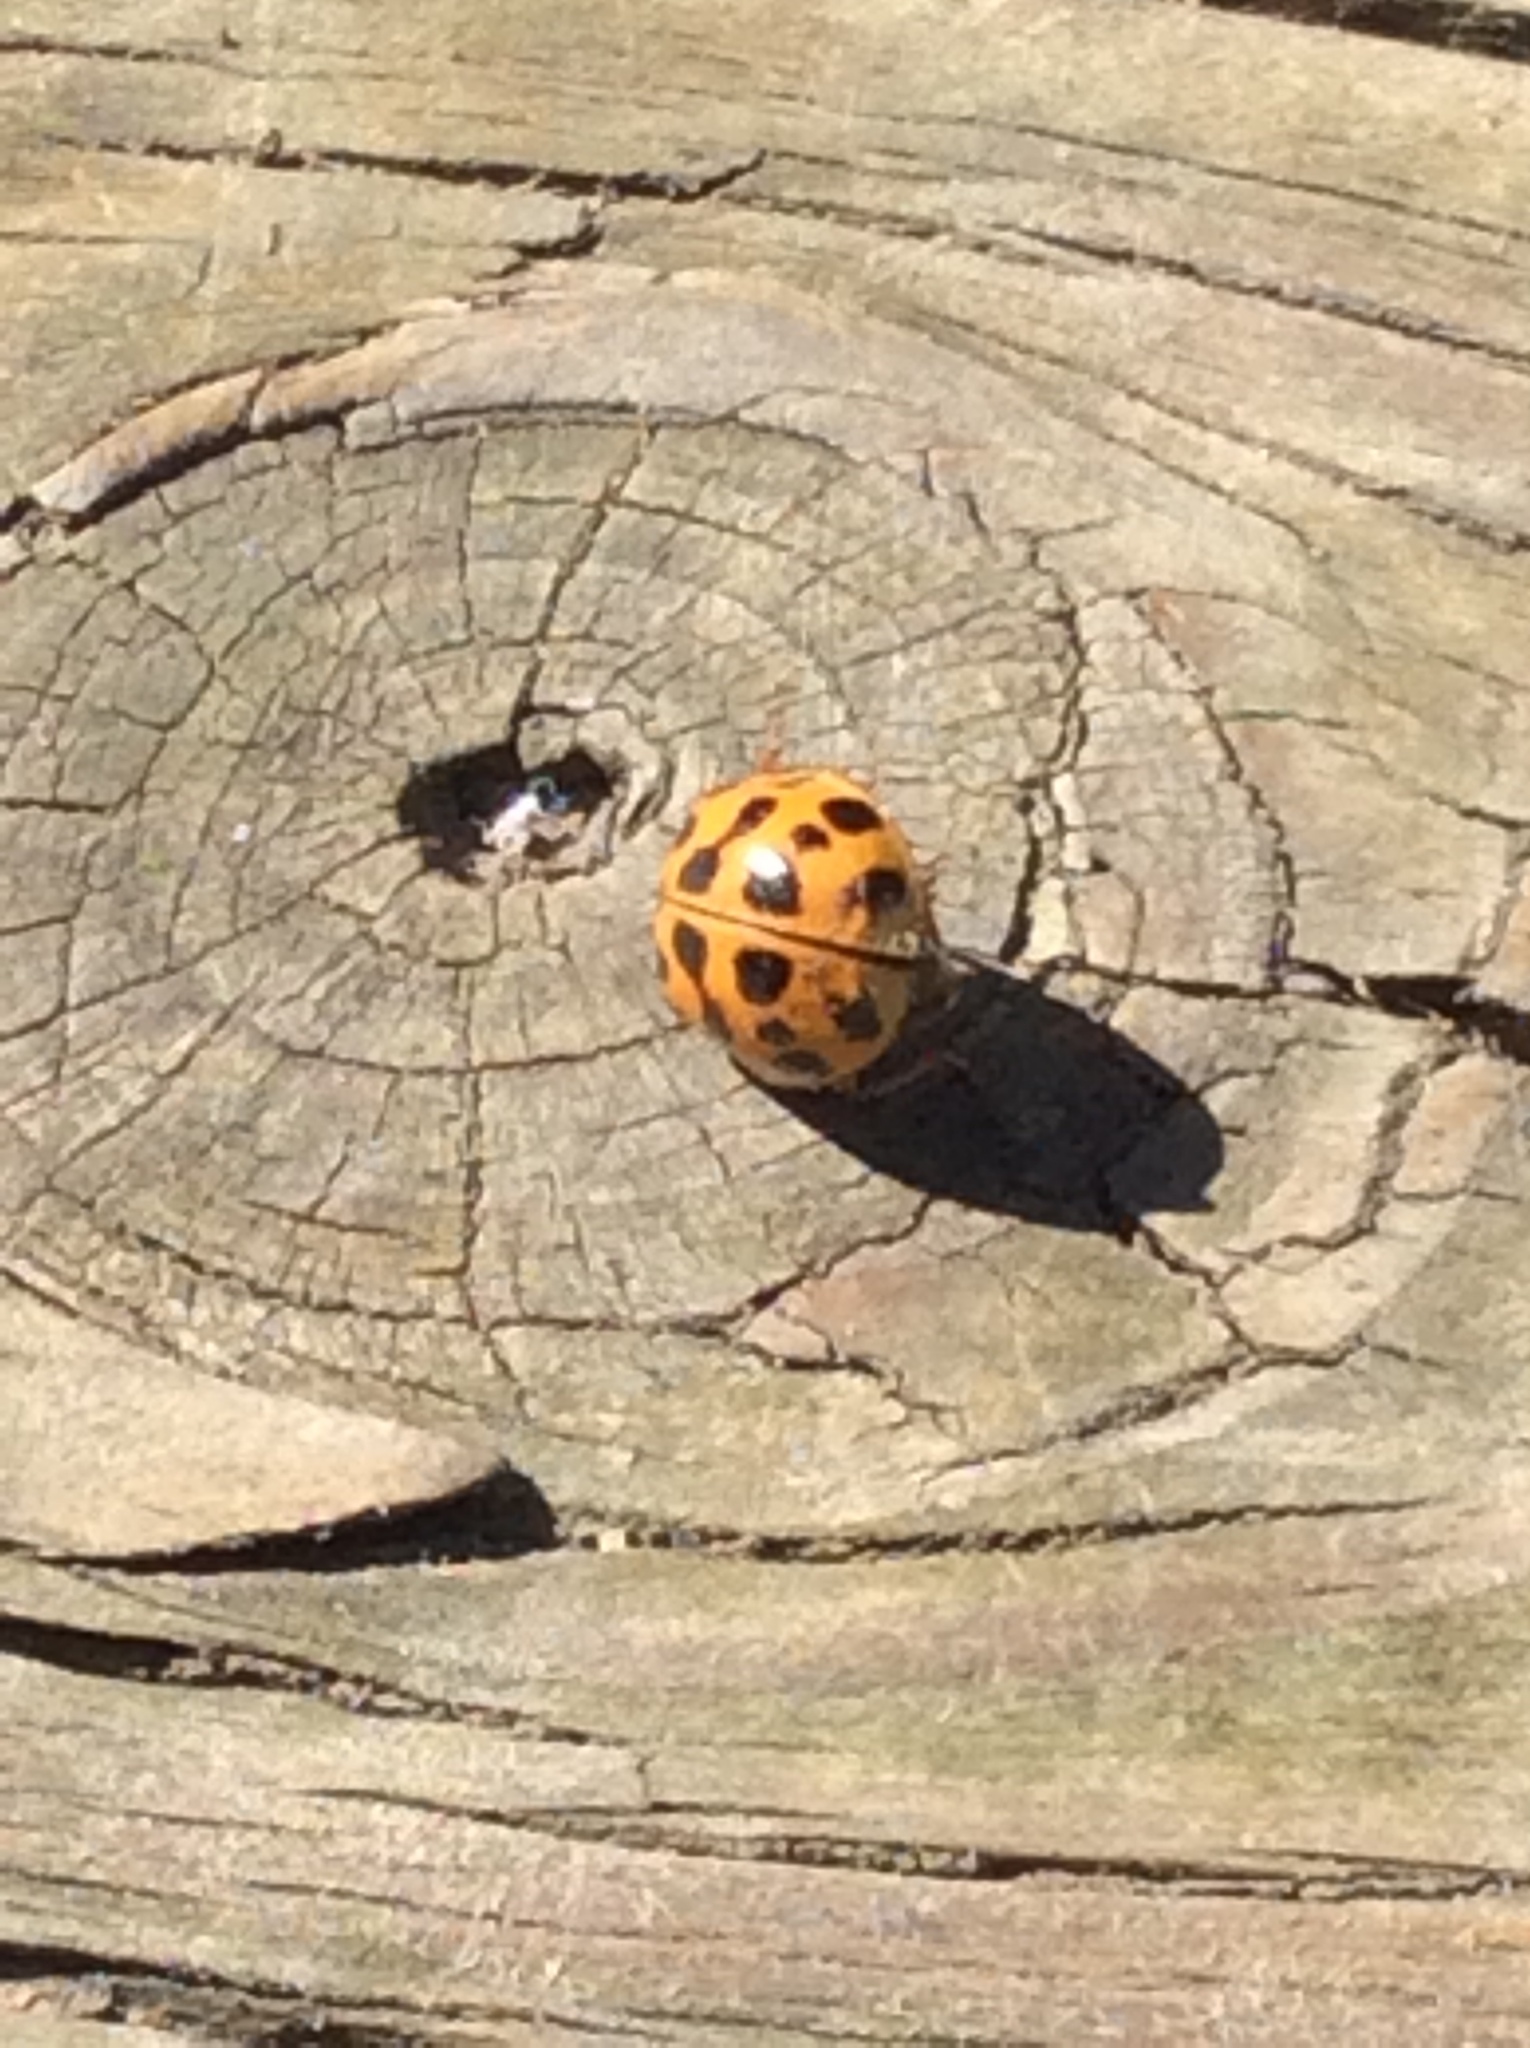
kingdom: Animalia
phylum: Arthropoda
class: Insecta
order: Coleoptera
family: Coccinellidae
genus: Harmonia
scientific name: Harmonia axyridis
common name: Harlequin ladybird
